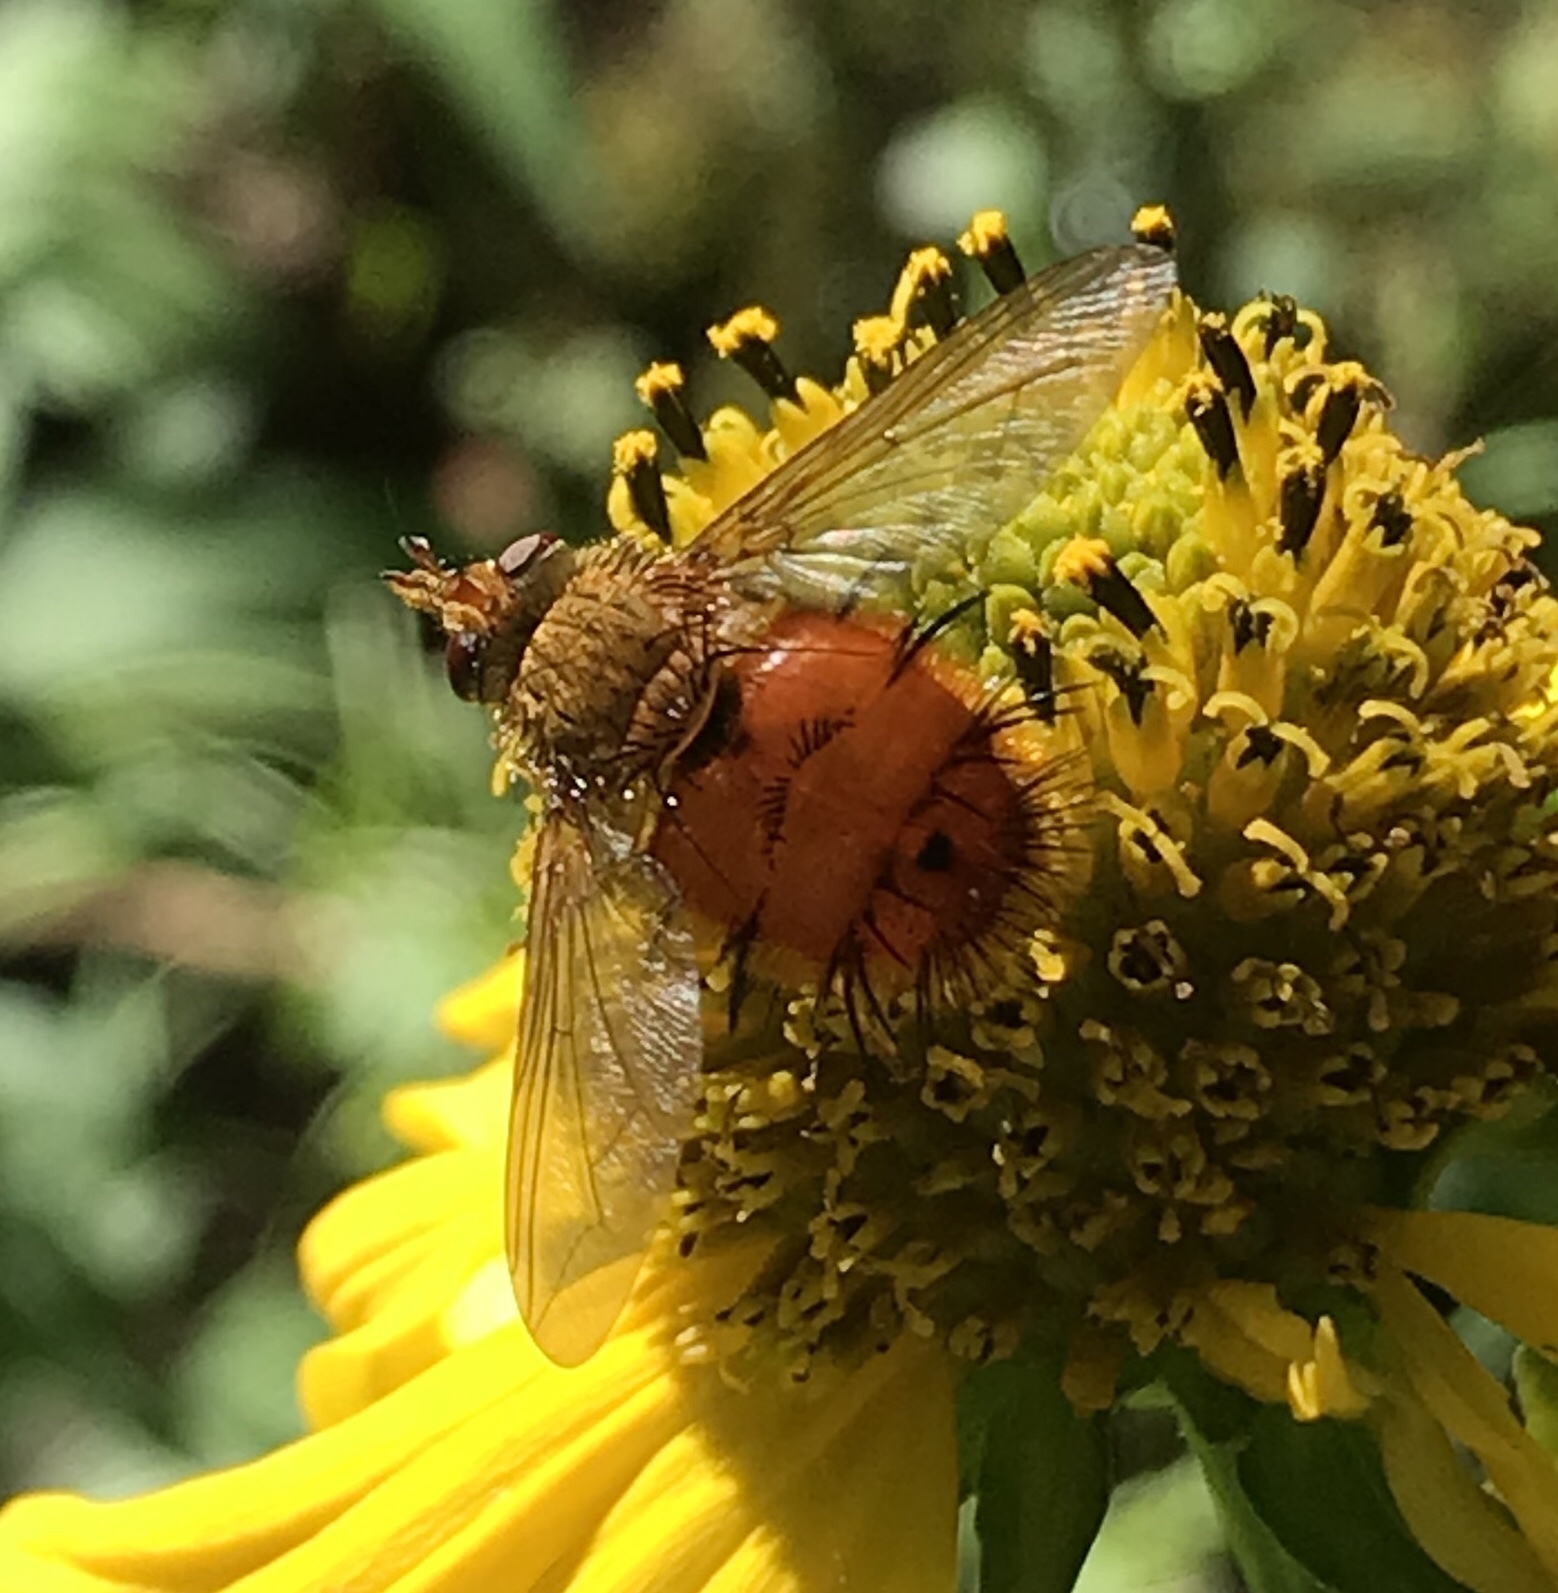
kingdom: Animalia
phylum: Arthropoda
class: Insecta
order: Diptera
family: Tachinidae
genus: Adejeania
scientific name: Adejeania vexatrix
